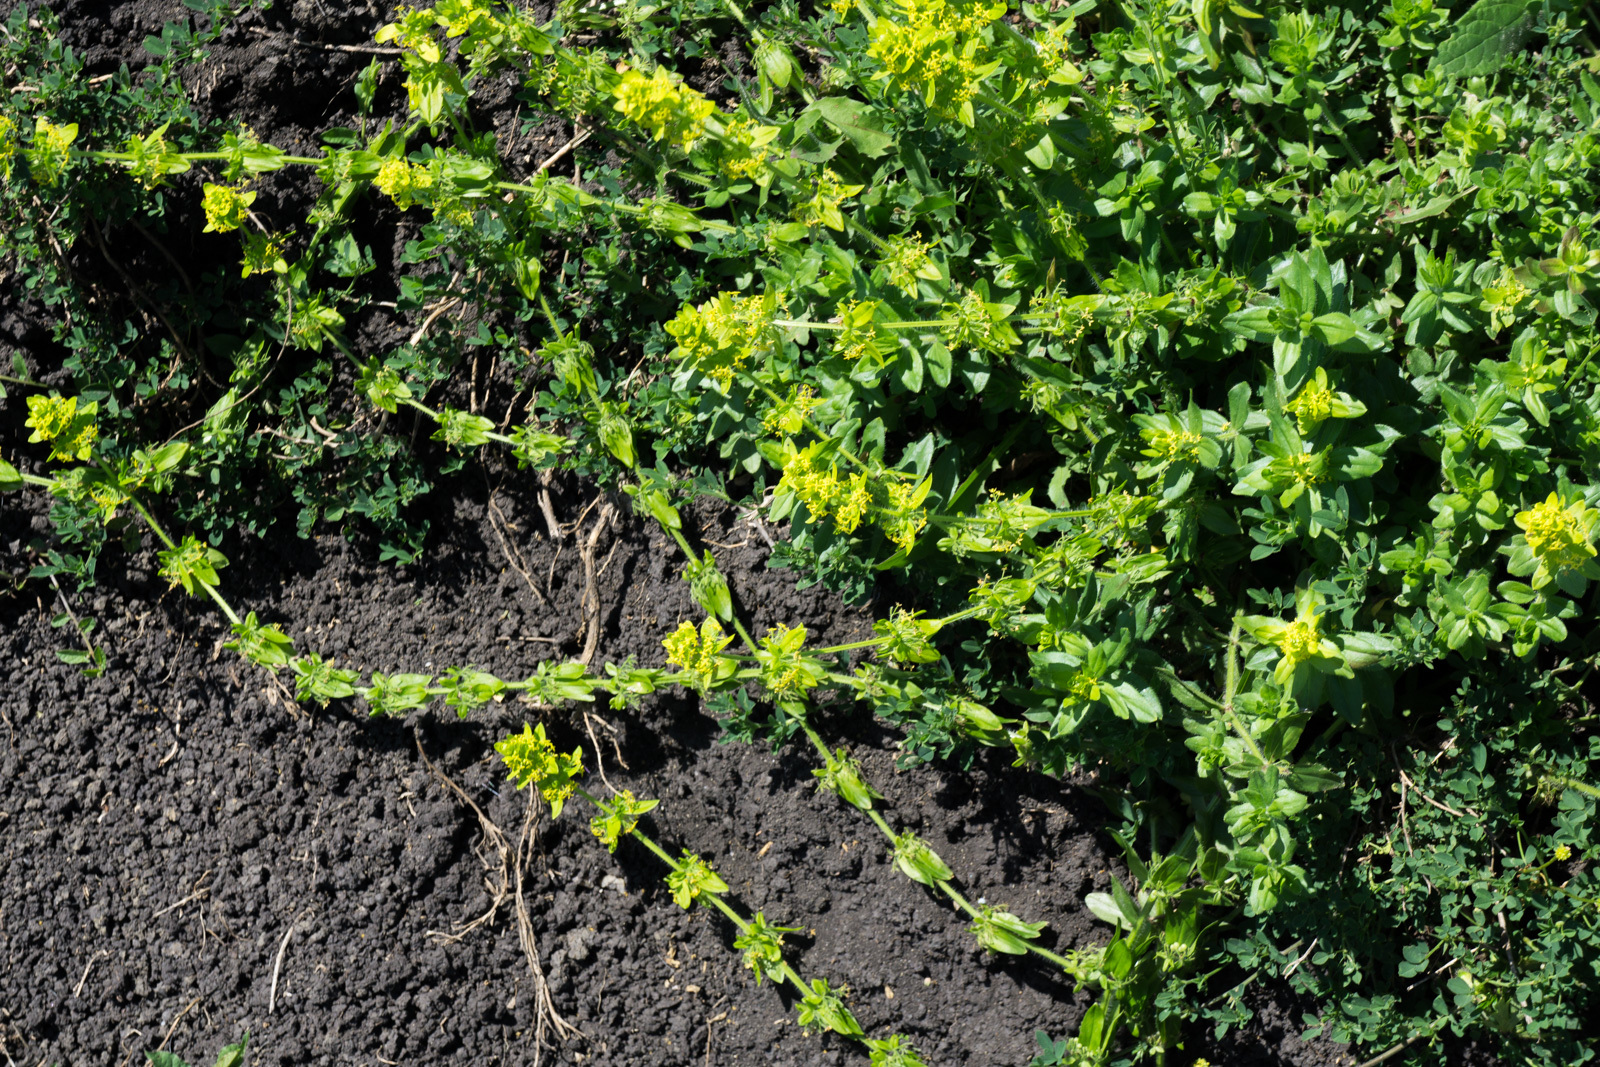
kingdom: Plantae
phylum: Tracheophyta
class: Magnoliopsida
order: Gentianales
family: Rubiaceae
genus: Cruciata
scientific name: Cruciata laevipes
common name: Crosswort
